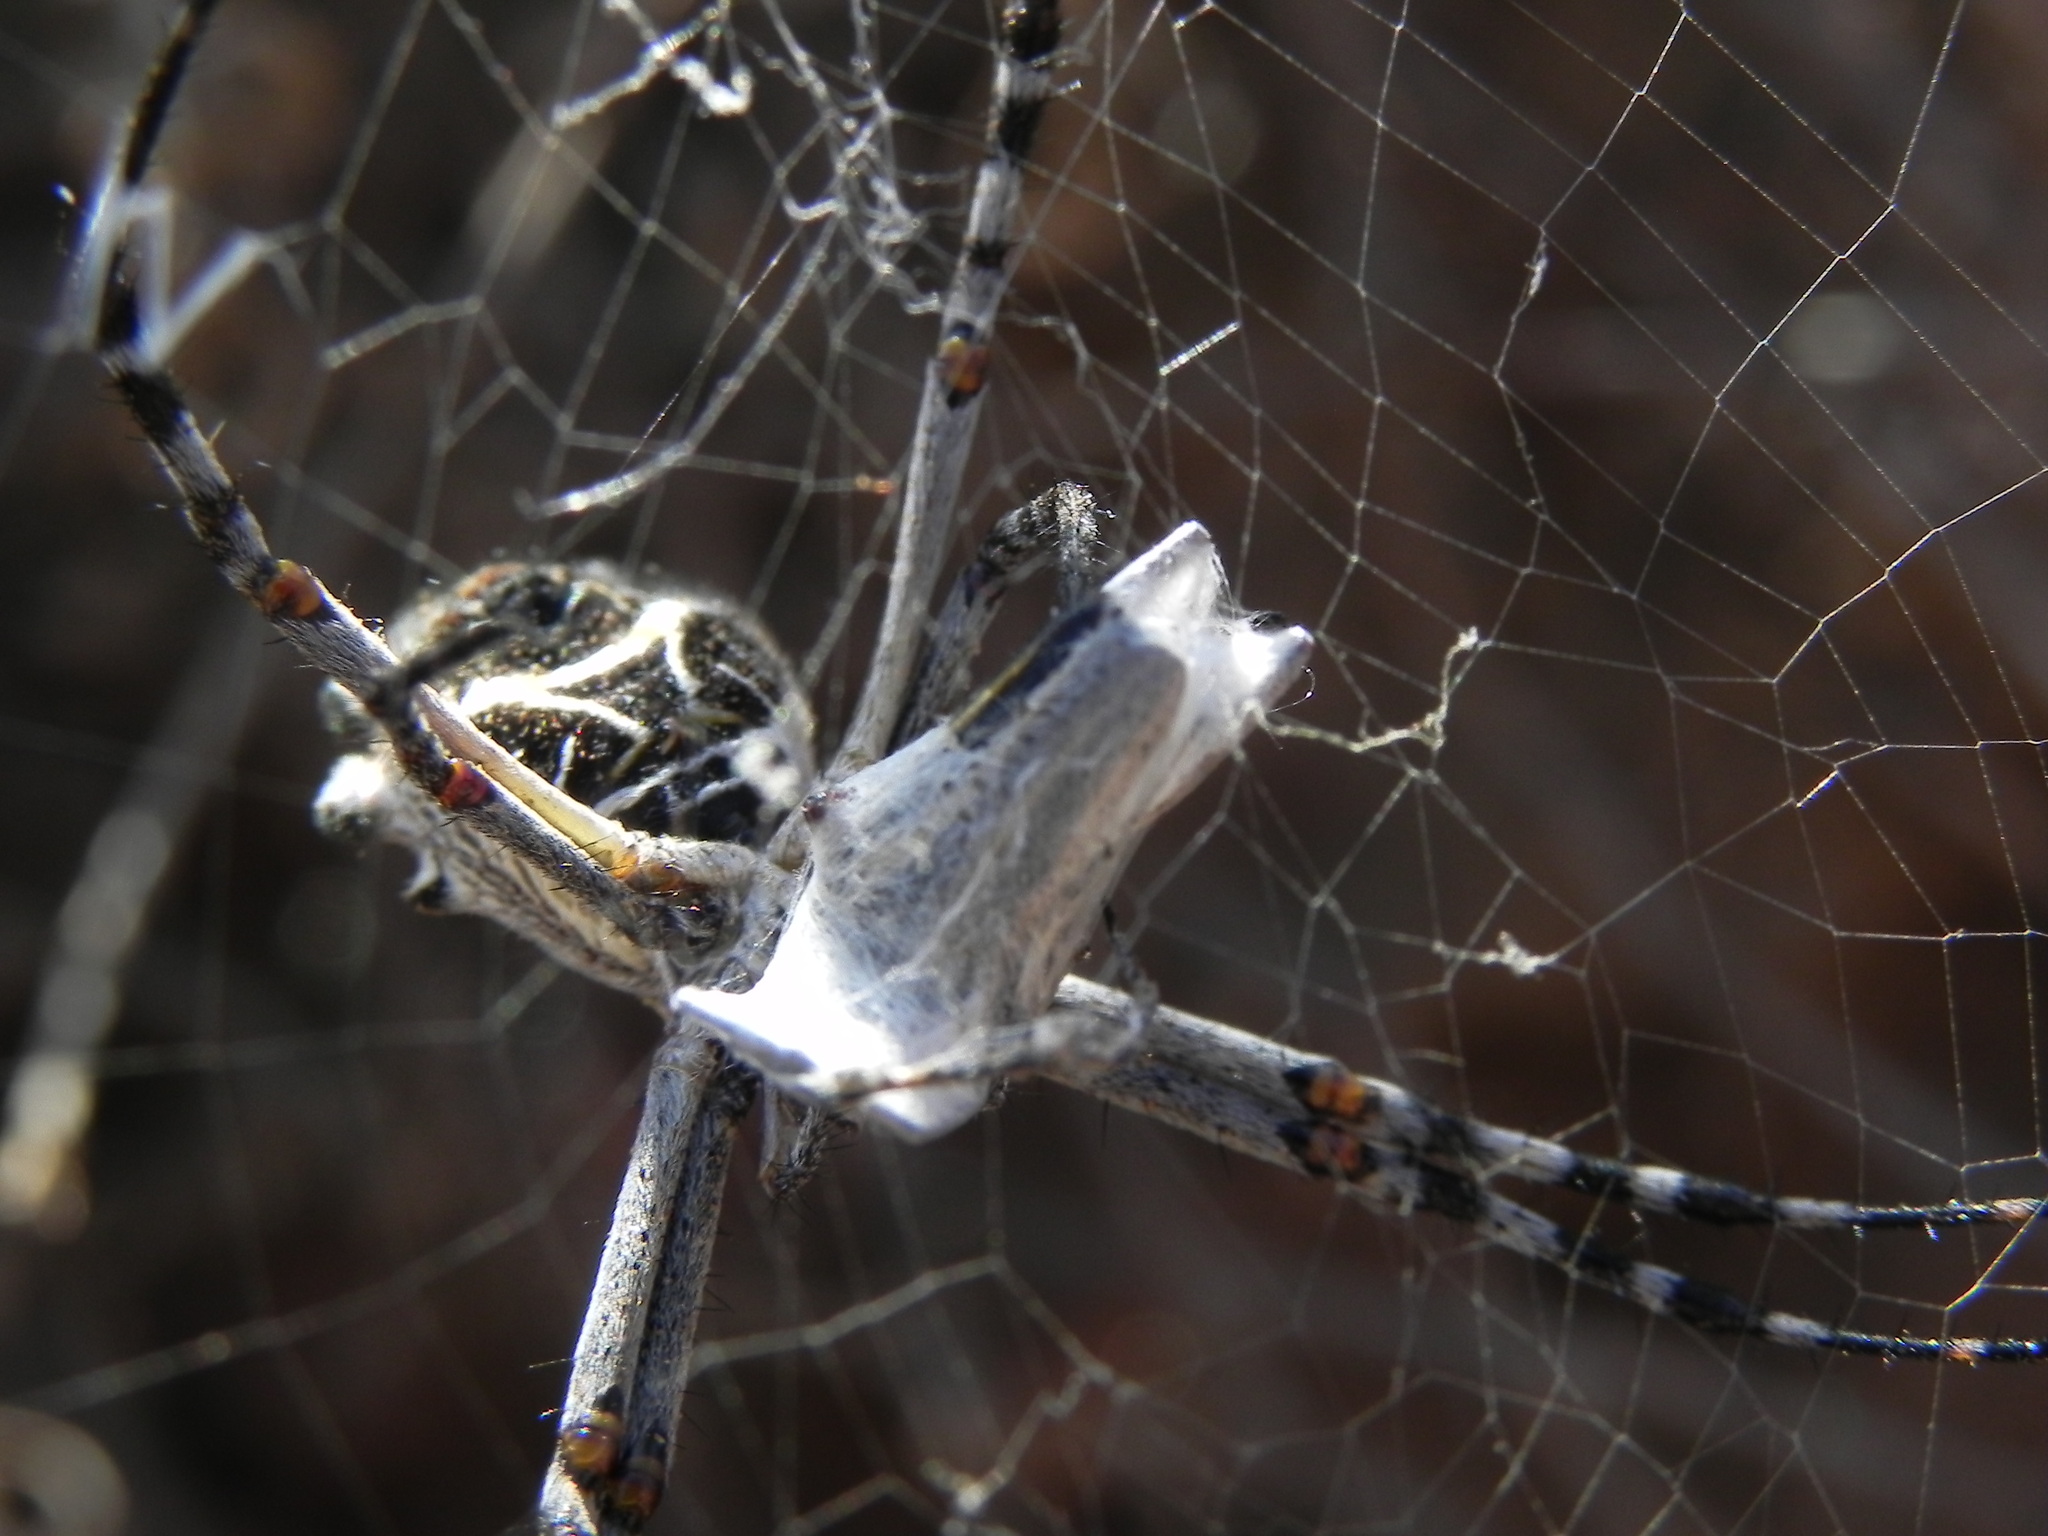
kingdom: Animalia
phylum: Arthropoda
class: Arachnida
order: Araneae
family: Araneidae
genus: Argiope
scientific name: Argiope argentata
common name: Orb weavers
